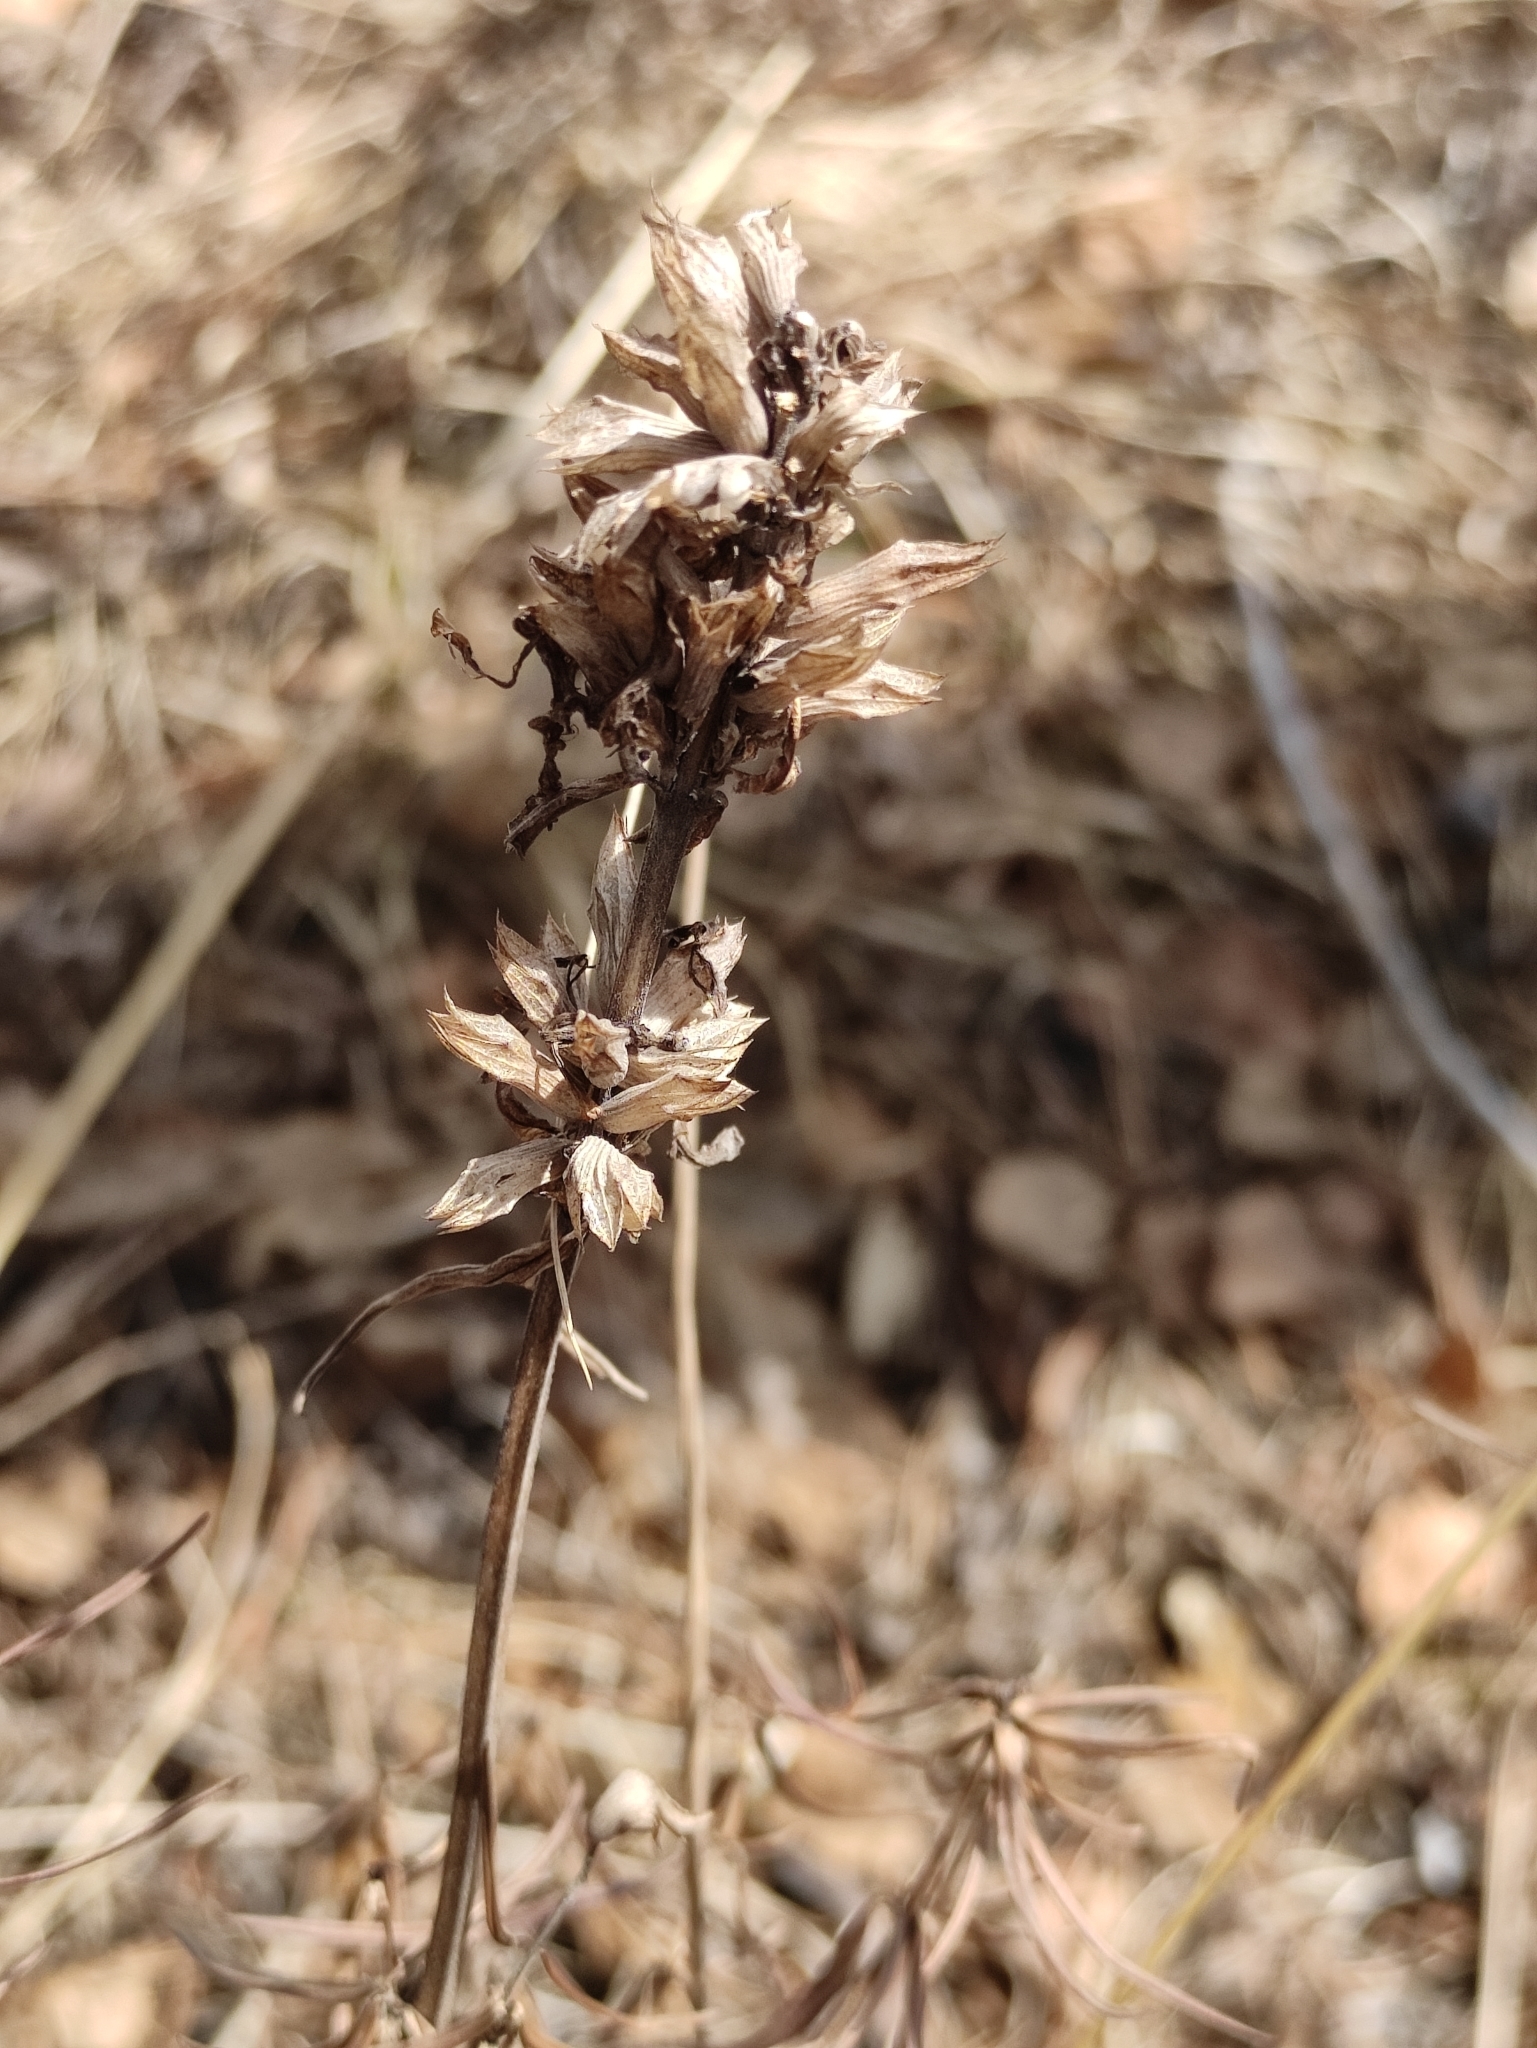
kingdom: Plantae
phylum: Tracheophyta
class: Magnoliopsida
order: Lamiales
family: Lamiaceae
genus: Dracocephalum
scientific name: Dracocephalum ruyschiana
